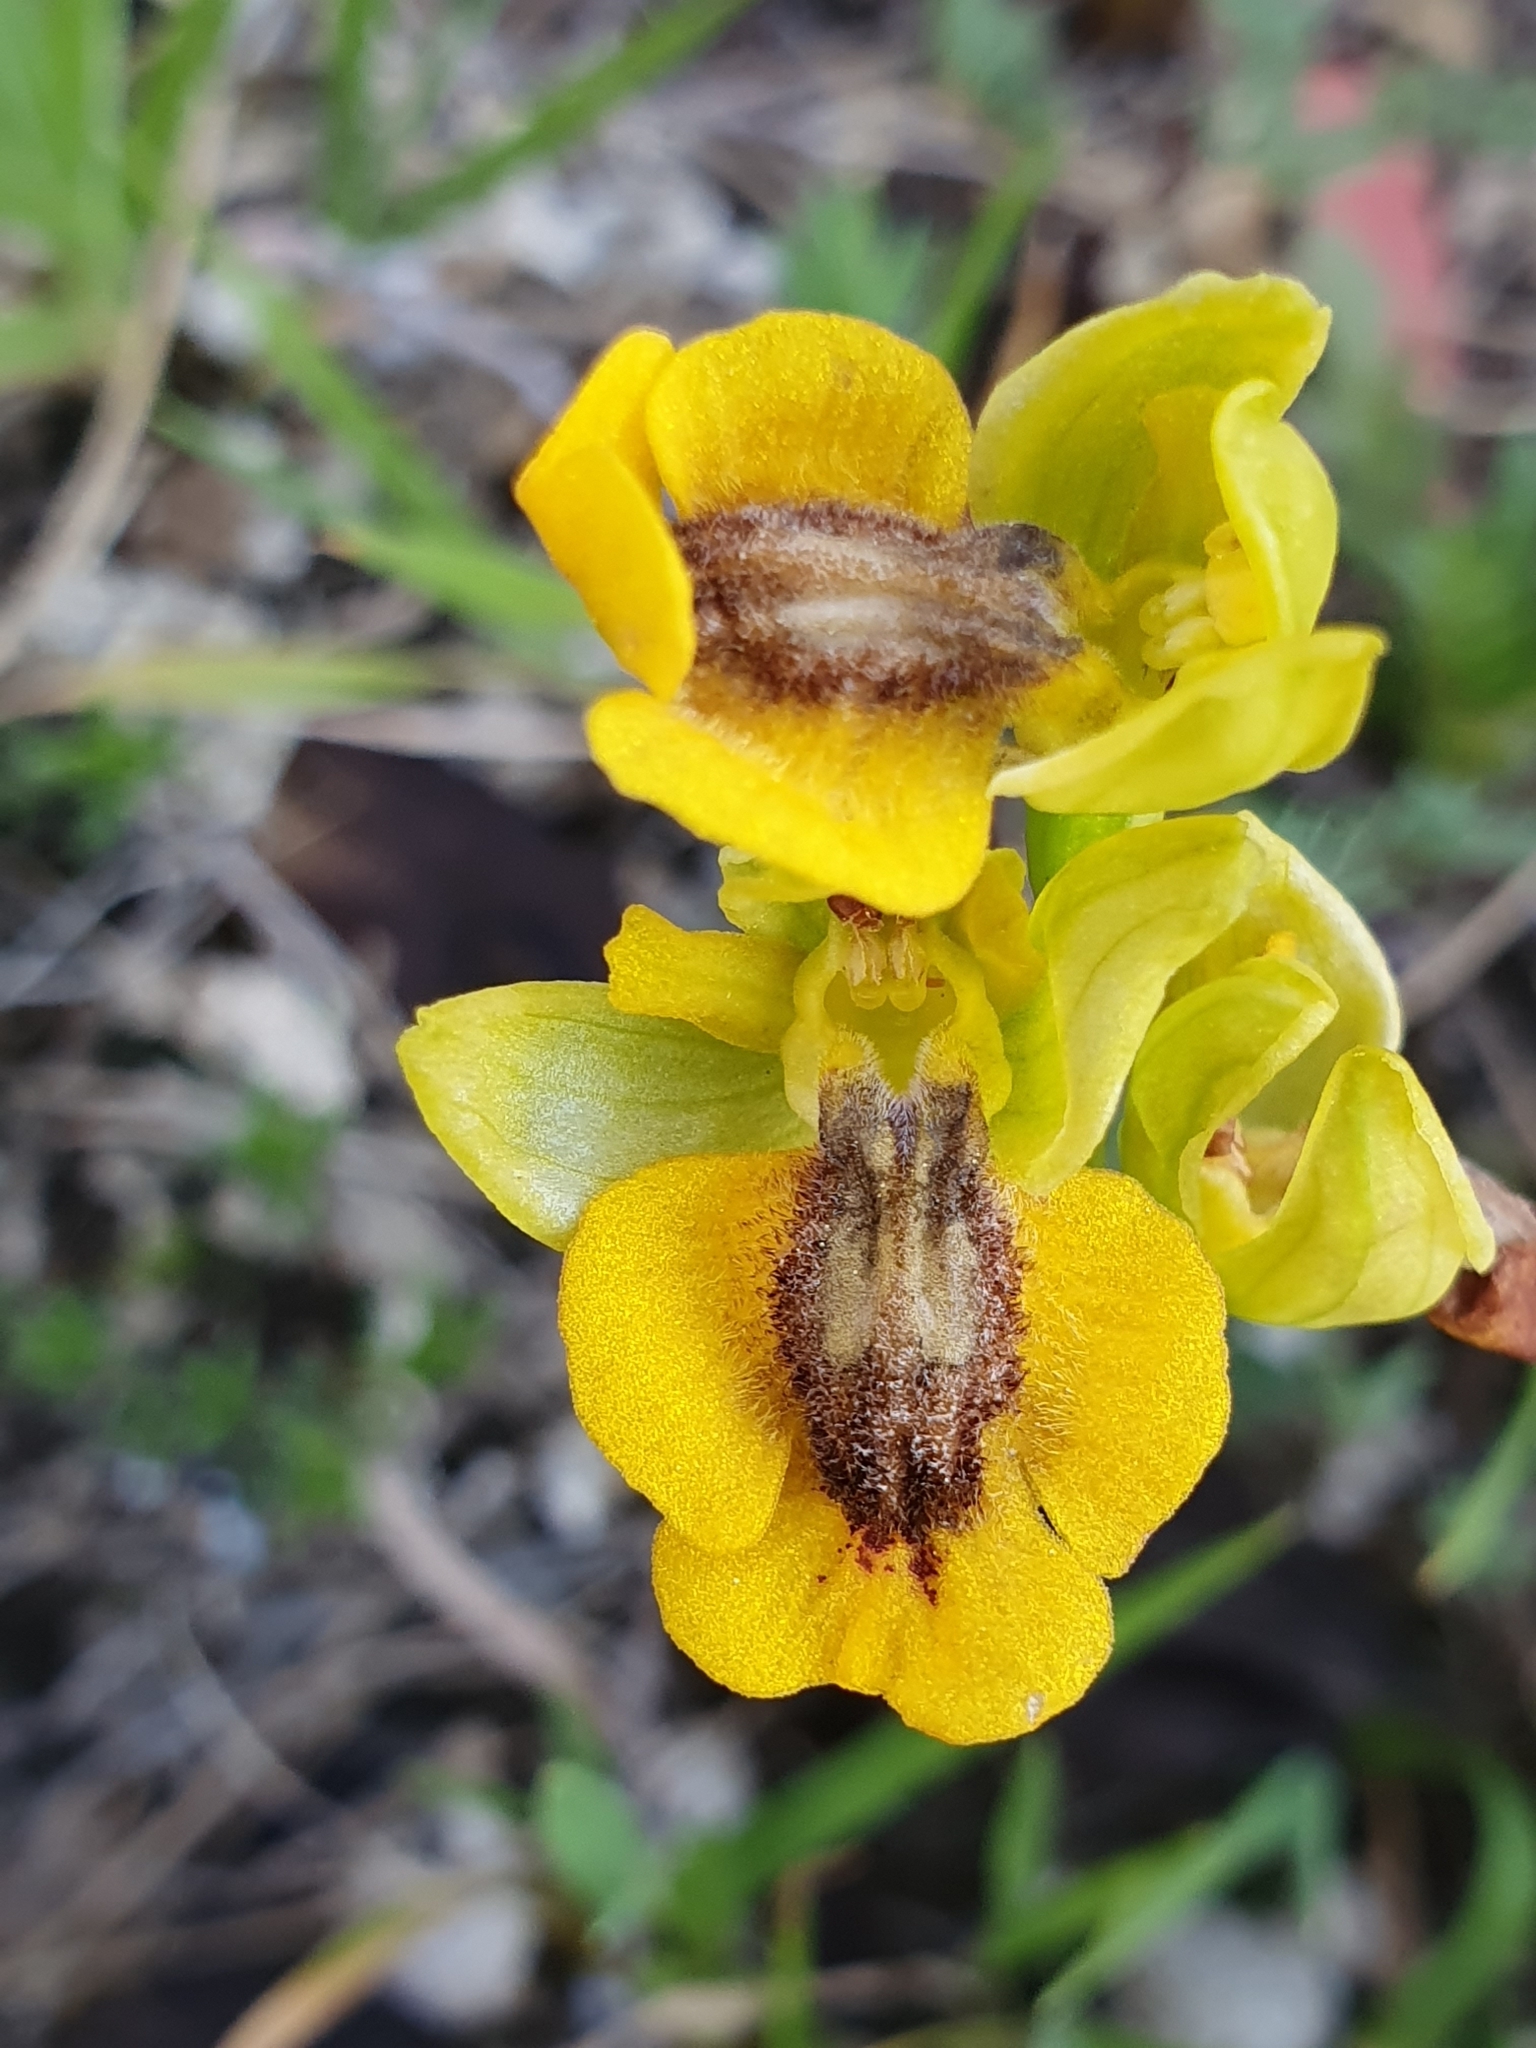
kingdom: Plantae
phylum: Tracheophyta
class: Liliopsida
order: Asparagales
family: Orchidaceae
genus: Ophrys
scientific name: Ophrys lutea
